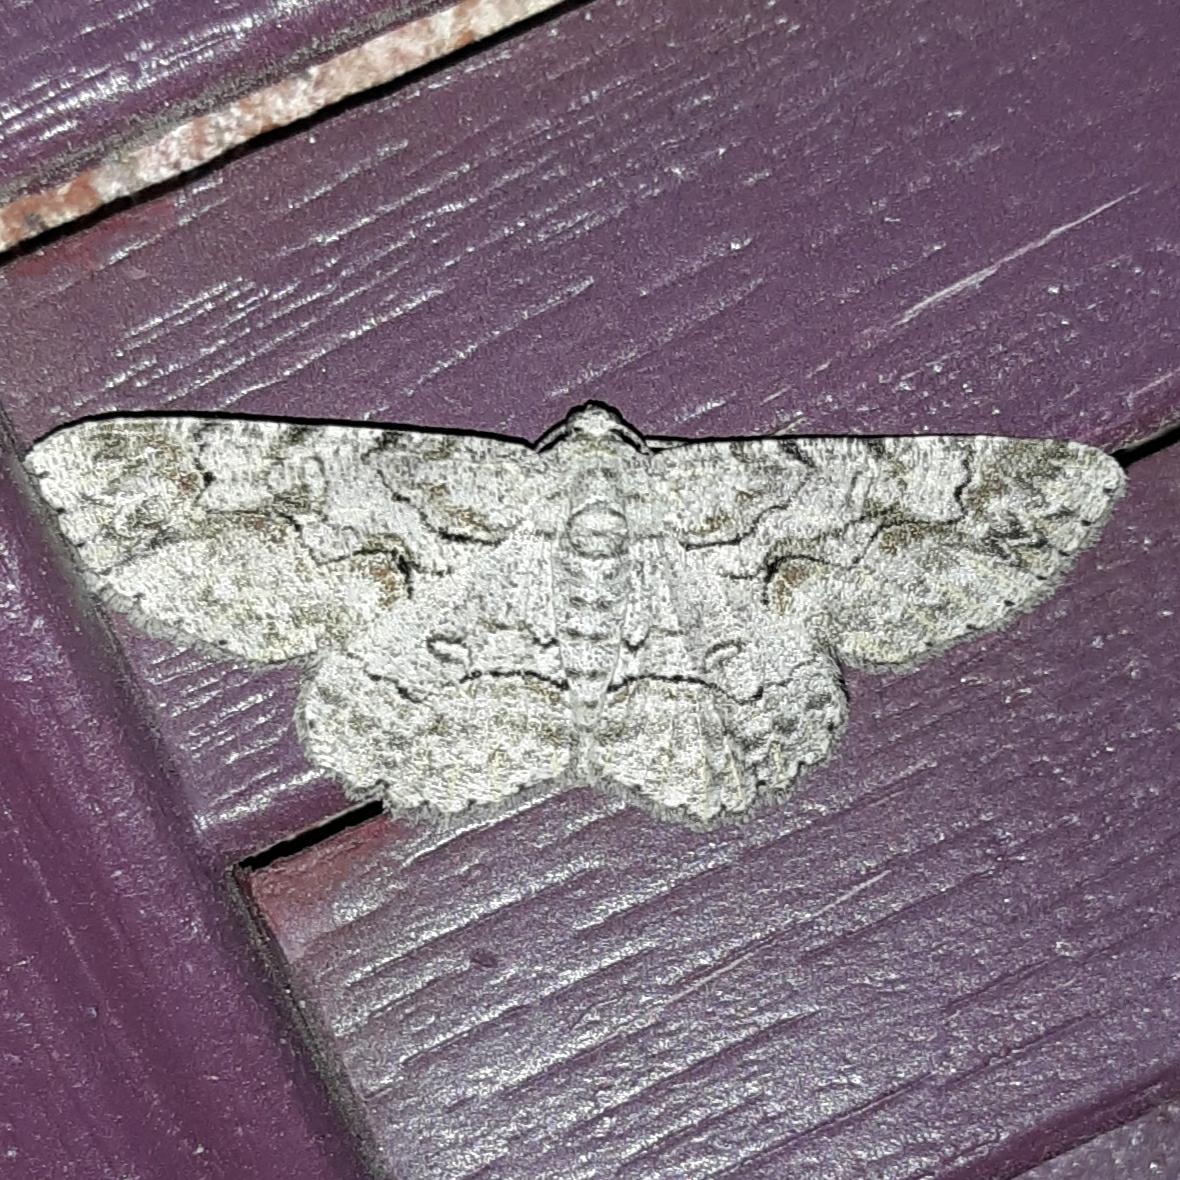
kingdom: Animalia
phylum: Arthropoda
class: Insecta
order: Lepidoptera
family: Geometridae
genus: Iridopsis
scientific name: Iridopsis defectaria
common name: Brown-shaded gray
